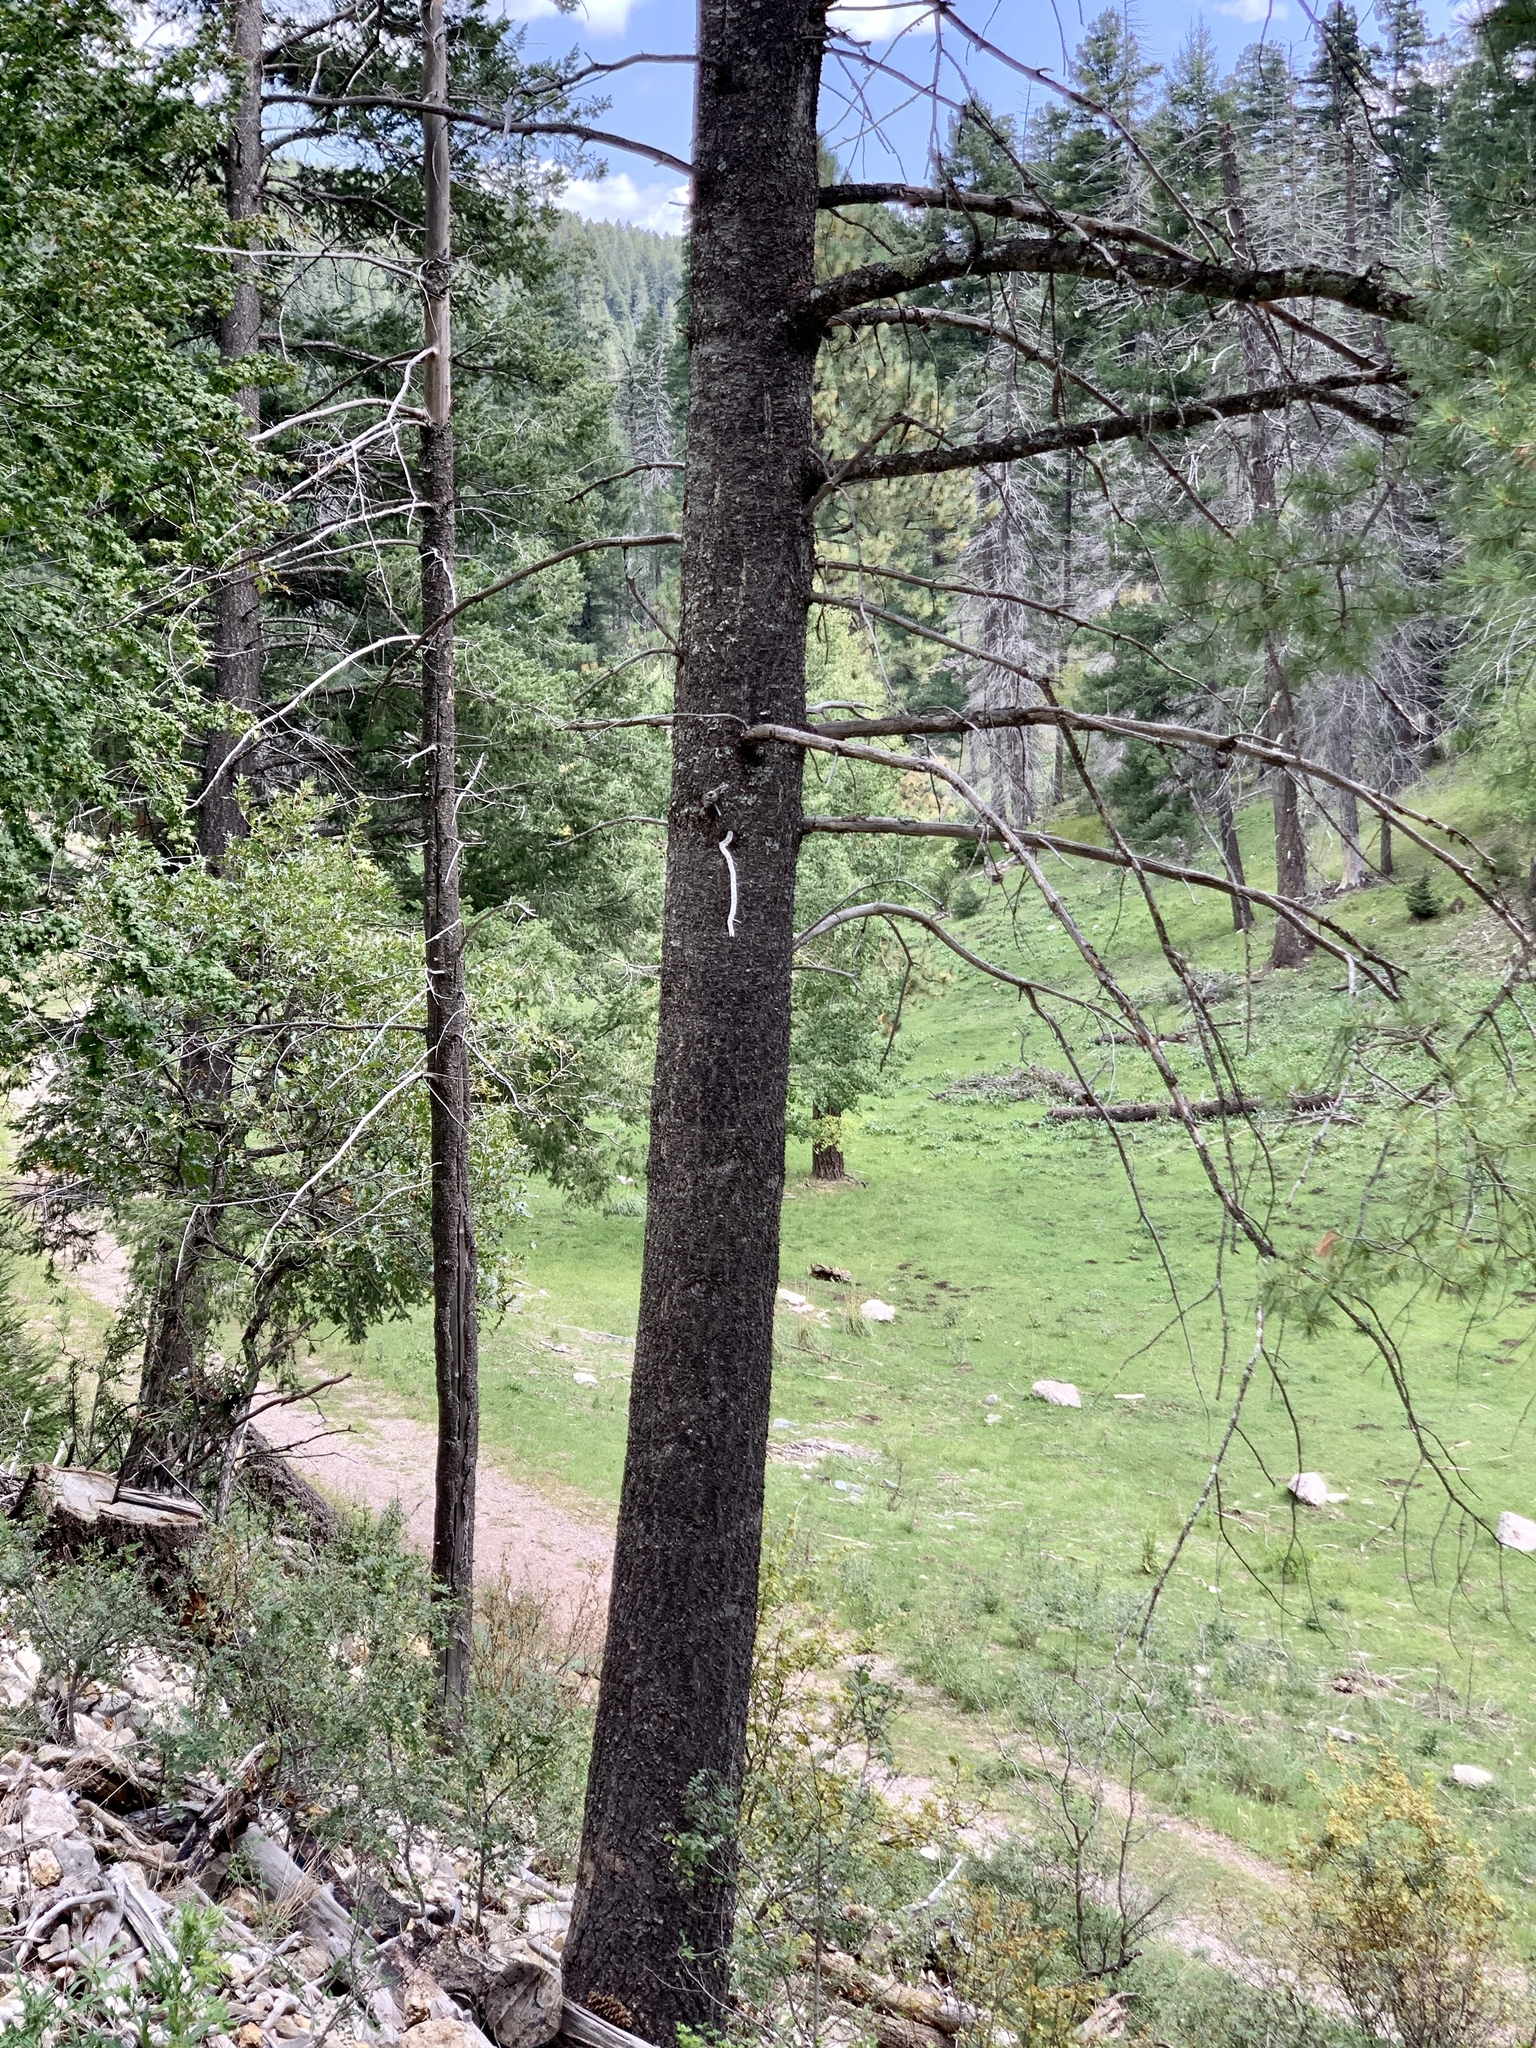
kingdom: Plantae
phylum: Tracheophyta
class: Pinopsida
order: Pinales
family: Pinaceae
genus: Pinus
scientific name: Pinus strobiformis
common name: Southwestern white pine
